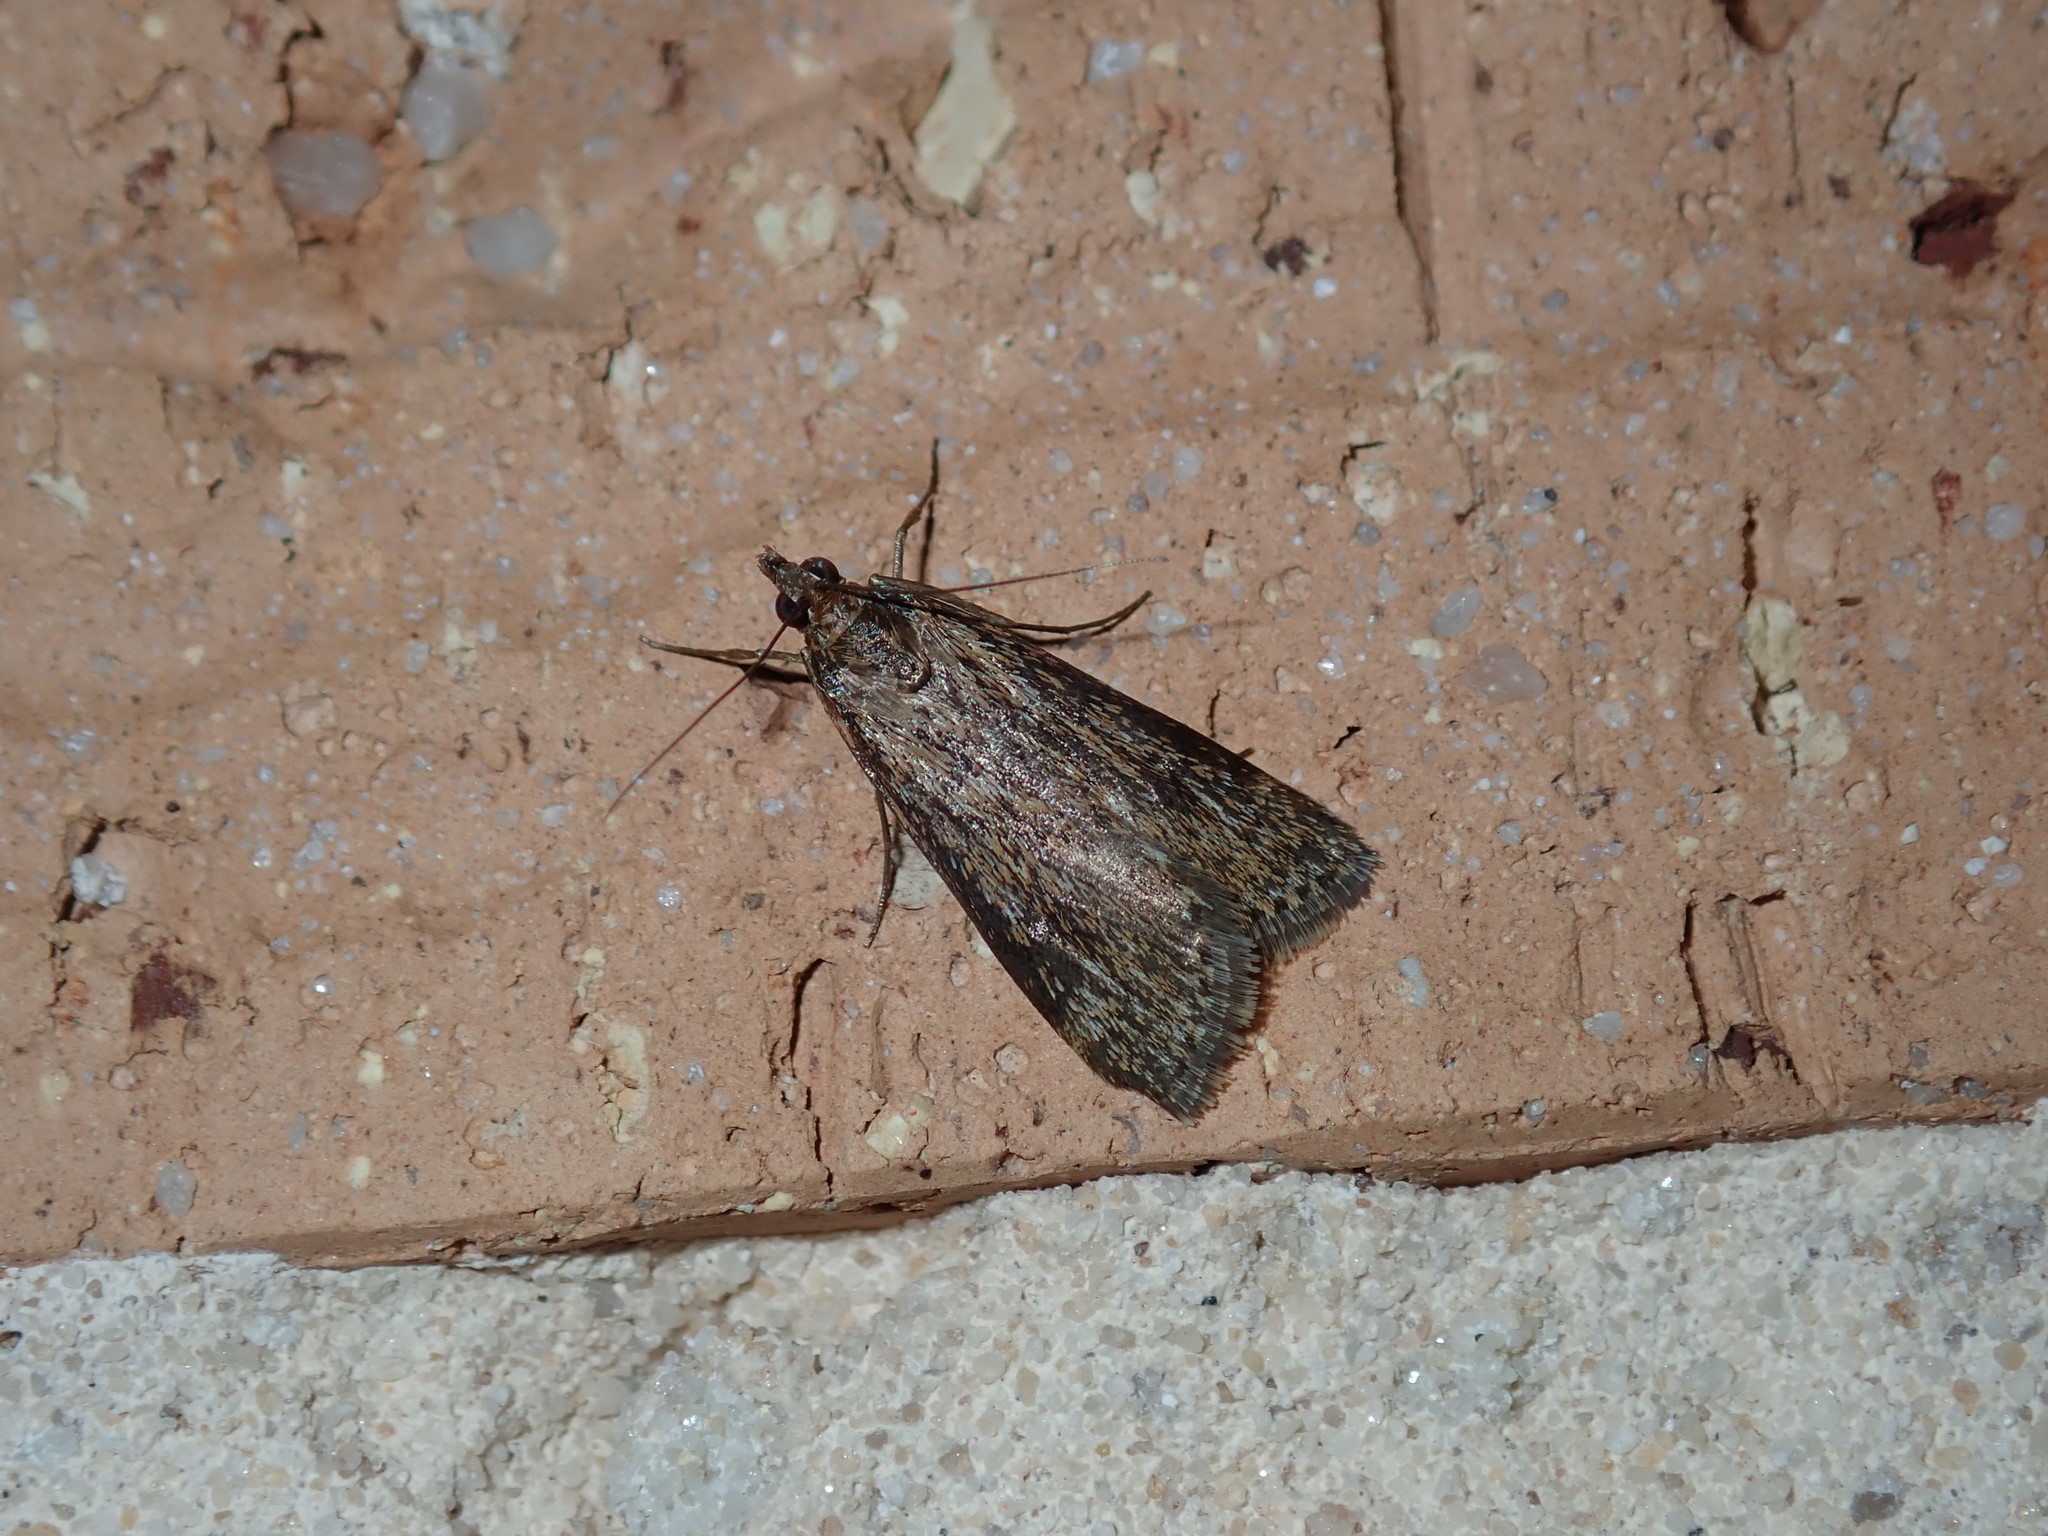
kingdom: Animalia
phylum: Arthropoda
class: Insecta
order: Lepidoptera
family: Crambidae
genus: Achyra
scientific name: Achyra affinitalis
